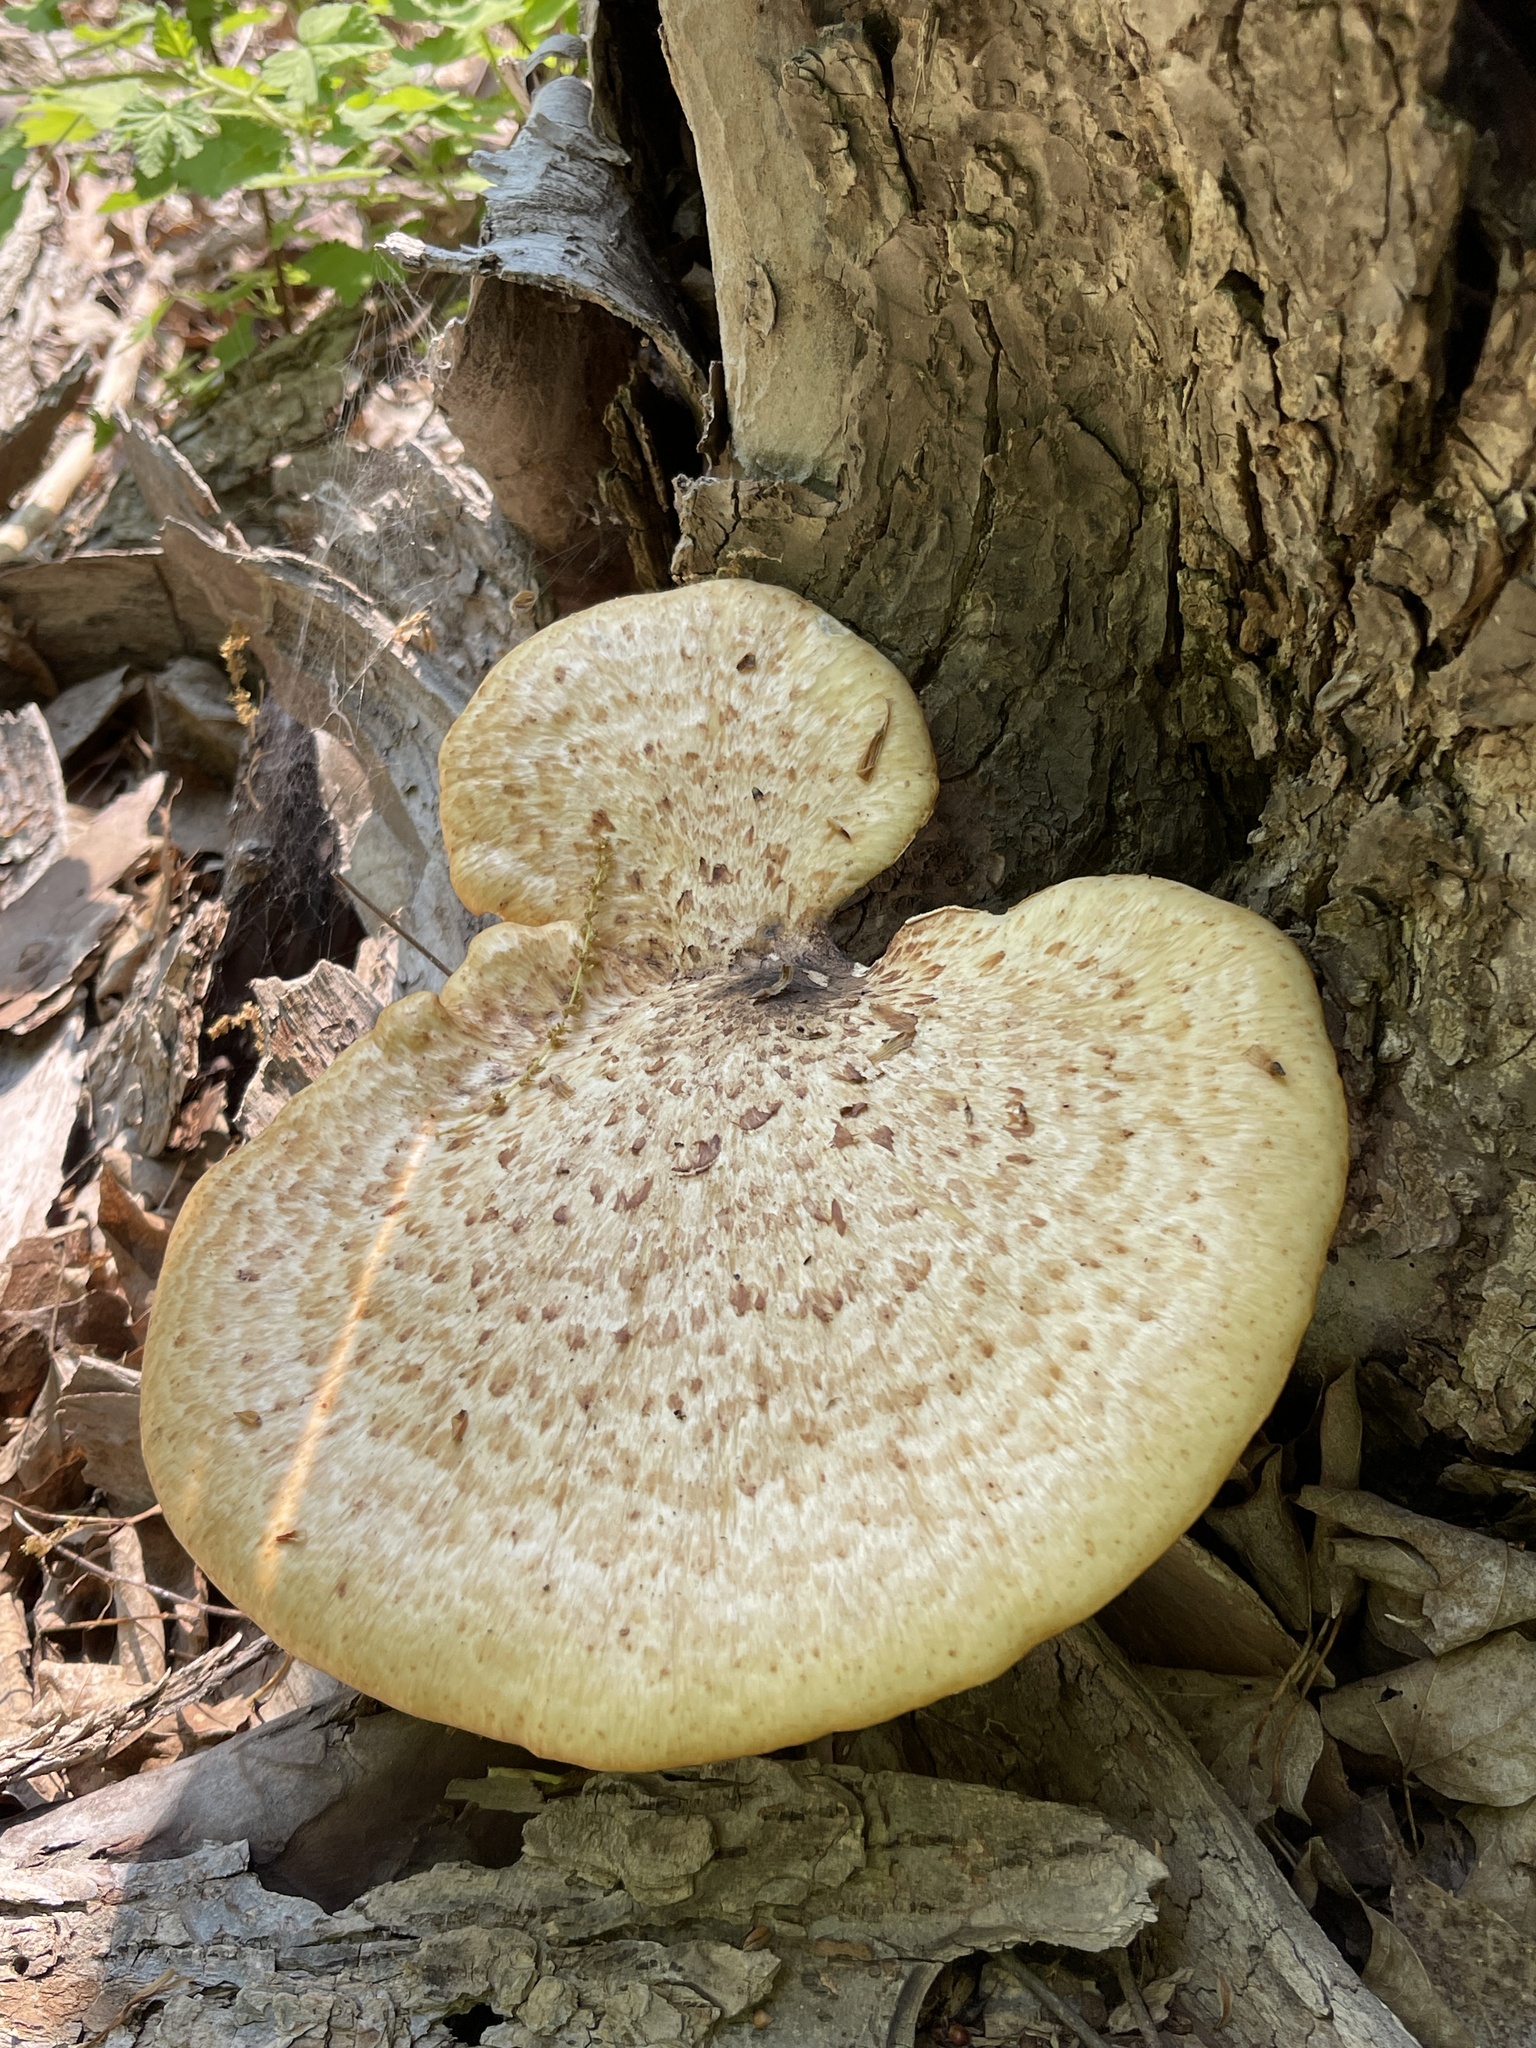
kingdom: Fungi
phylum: Basidiomycota
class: Agaricomycetes
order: Polyporales
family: Polyporaceae
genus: Cerioporus
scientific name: Cerioporus squamosus
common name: Dryad's saddle
